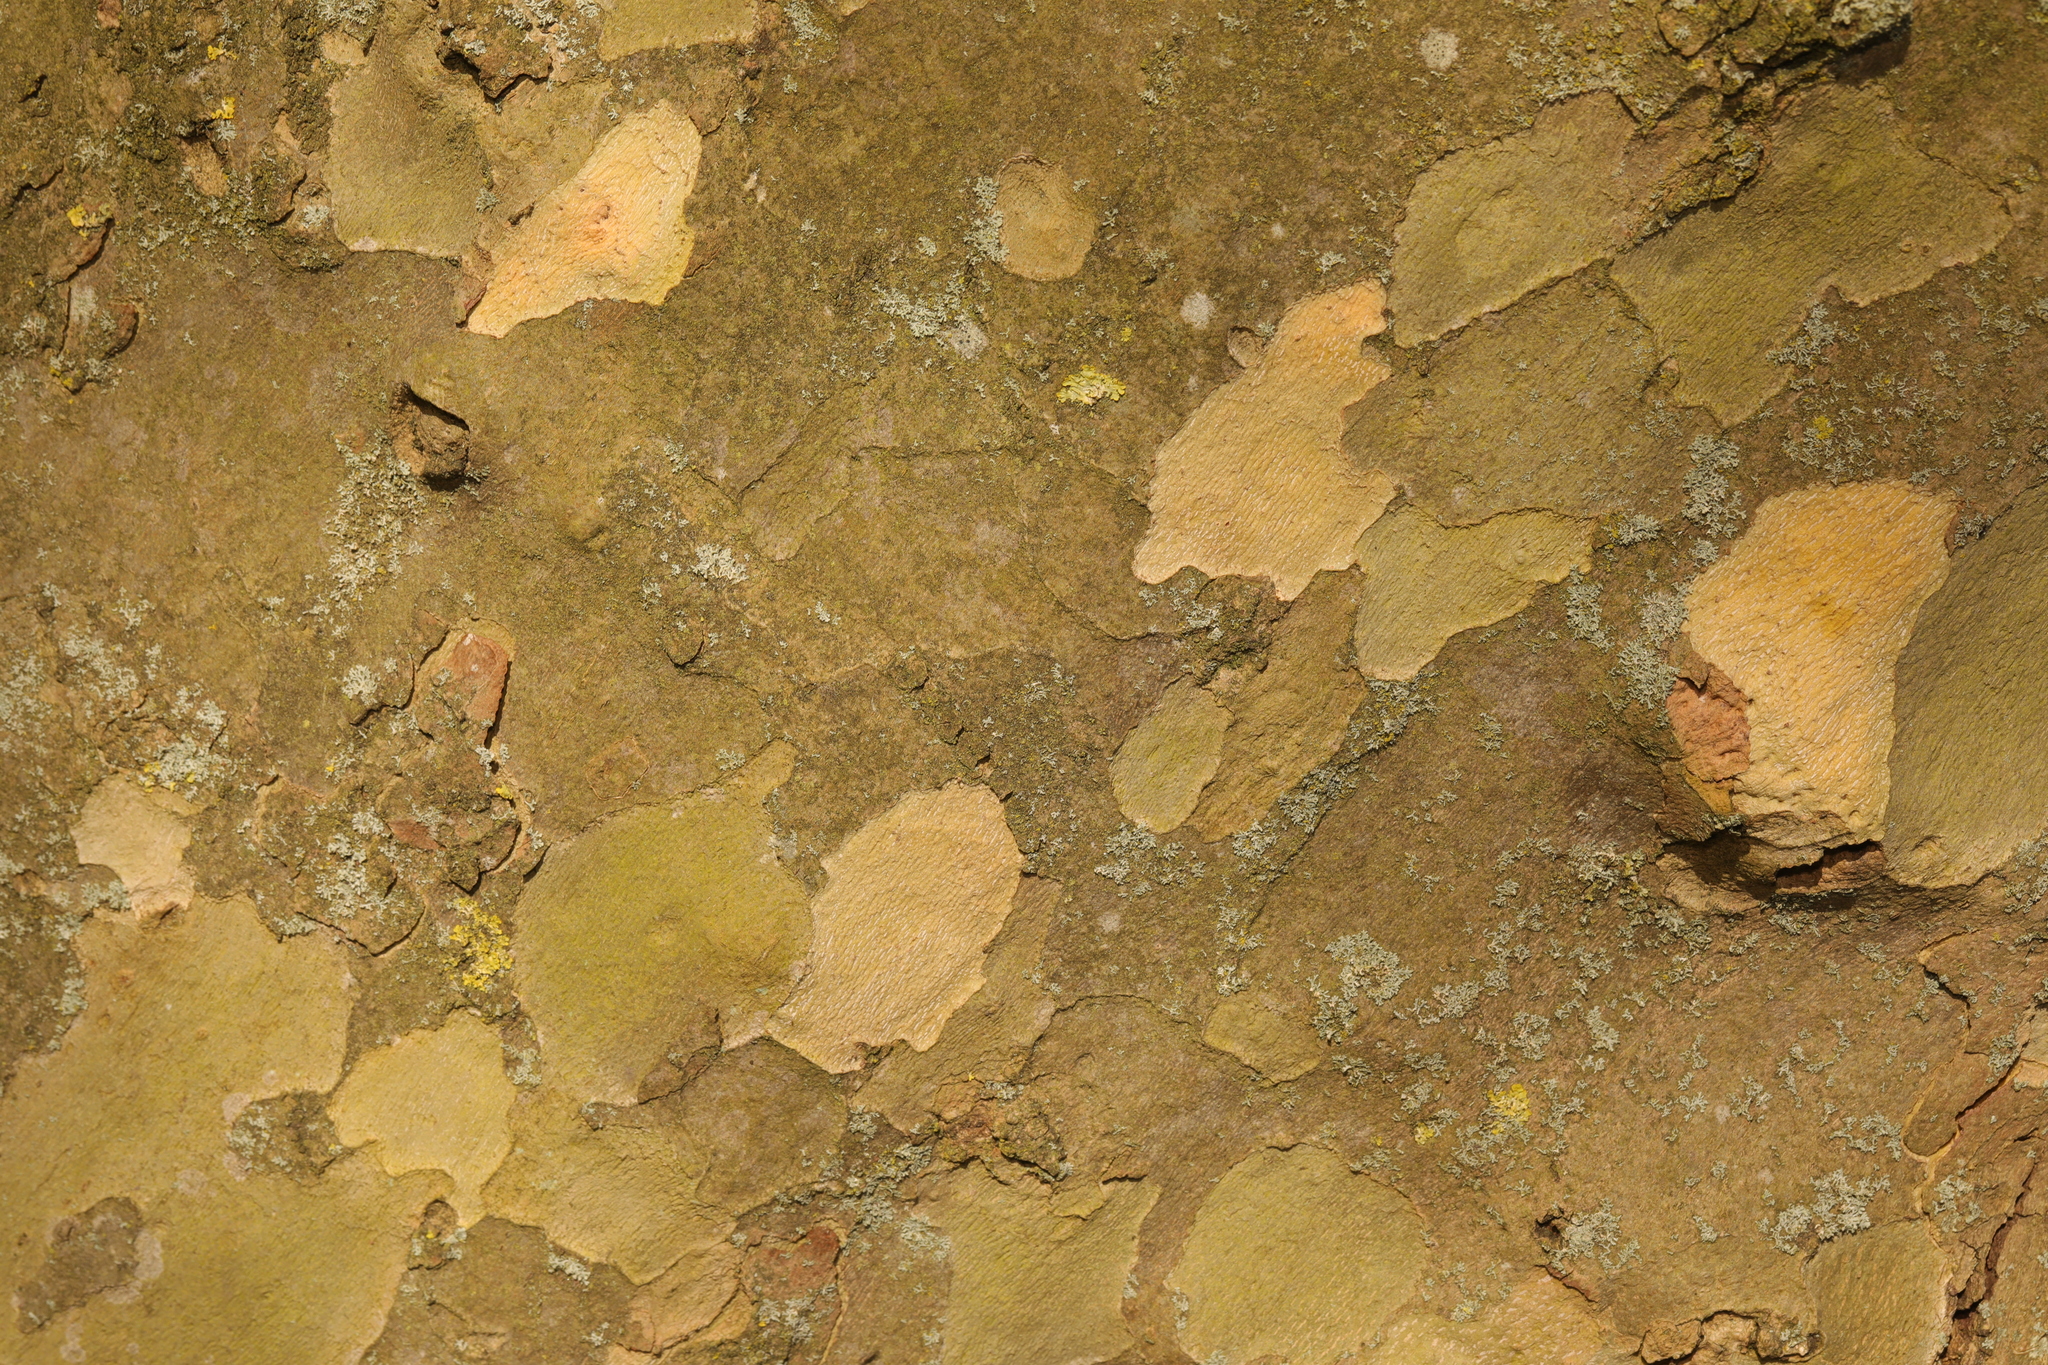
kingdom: Plantae
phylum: Tracheophyta
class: Magnoliopsida
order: Proteales
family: Platanaceae
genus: Platanus
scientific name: Platanus hispanica
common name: London plane
